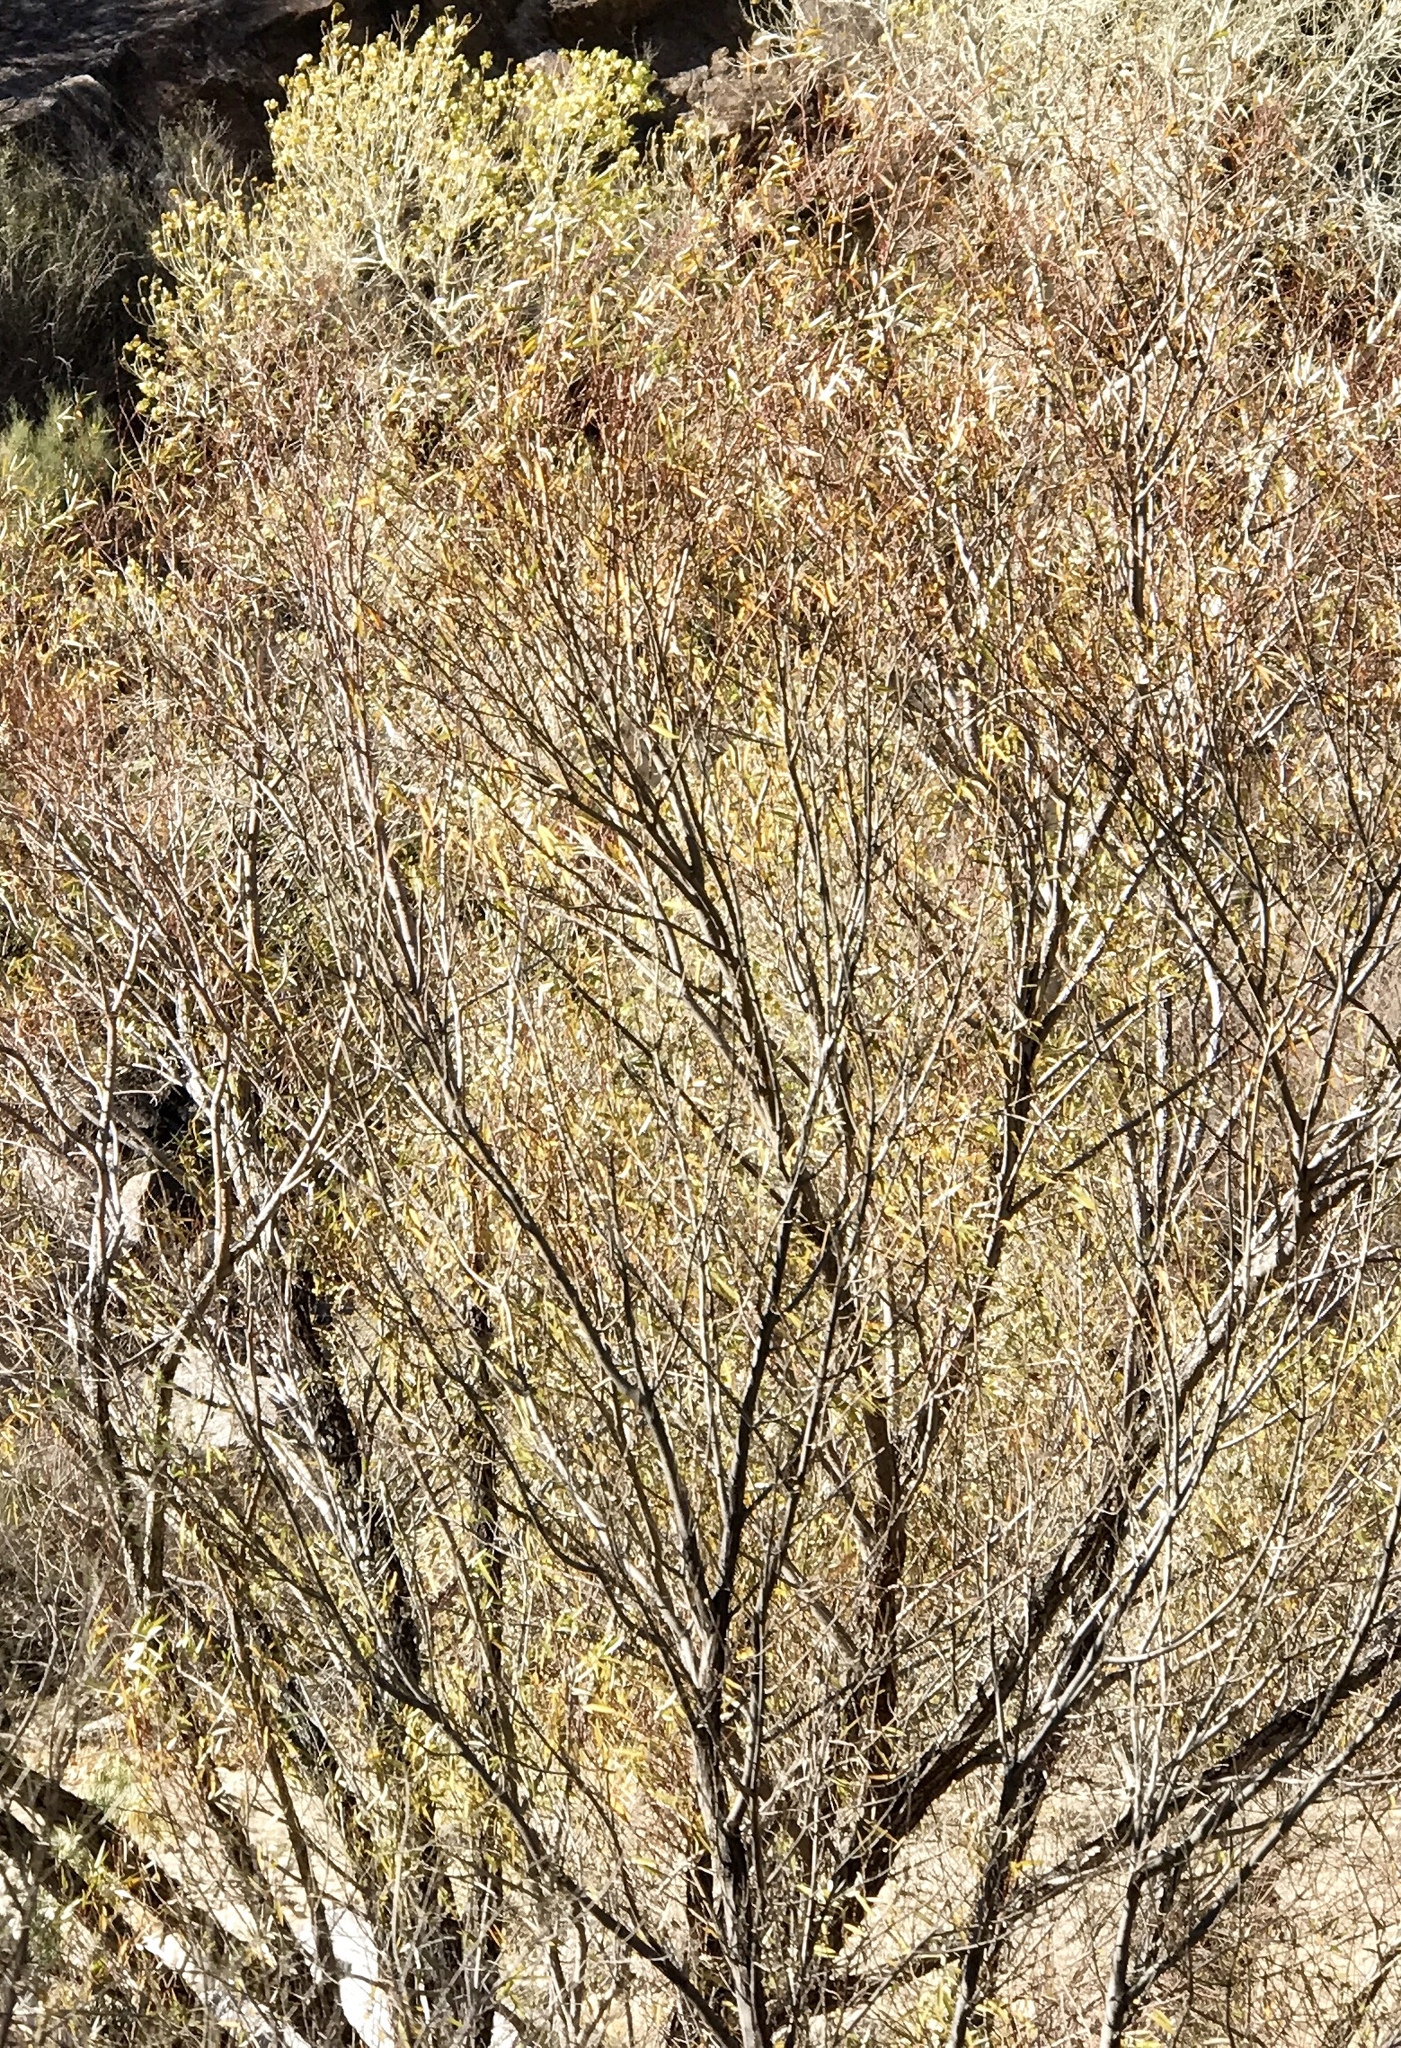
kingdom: Plantae
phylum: Tracheophyta
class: Magnoliopsida
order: Malpighiales
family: Salicaceae
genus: Populus
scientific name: Populus fremontii
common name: Fremont's cottonwood
